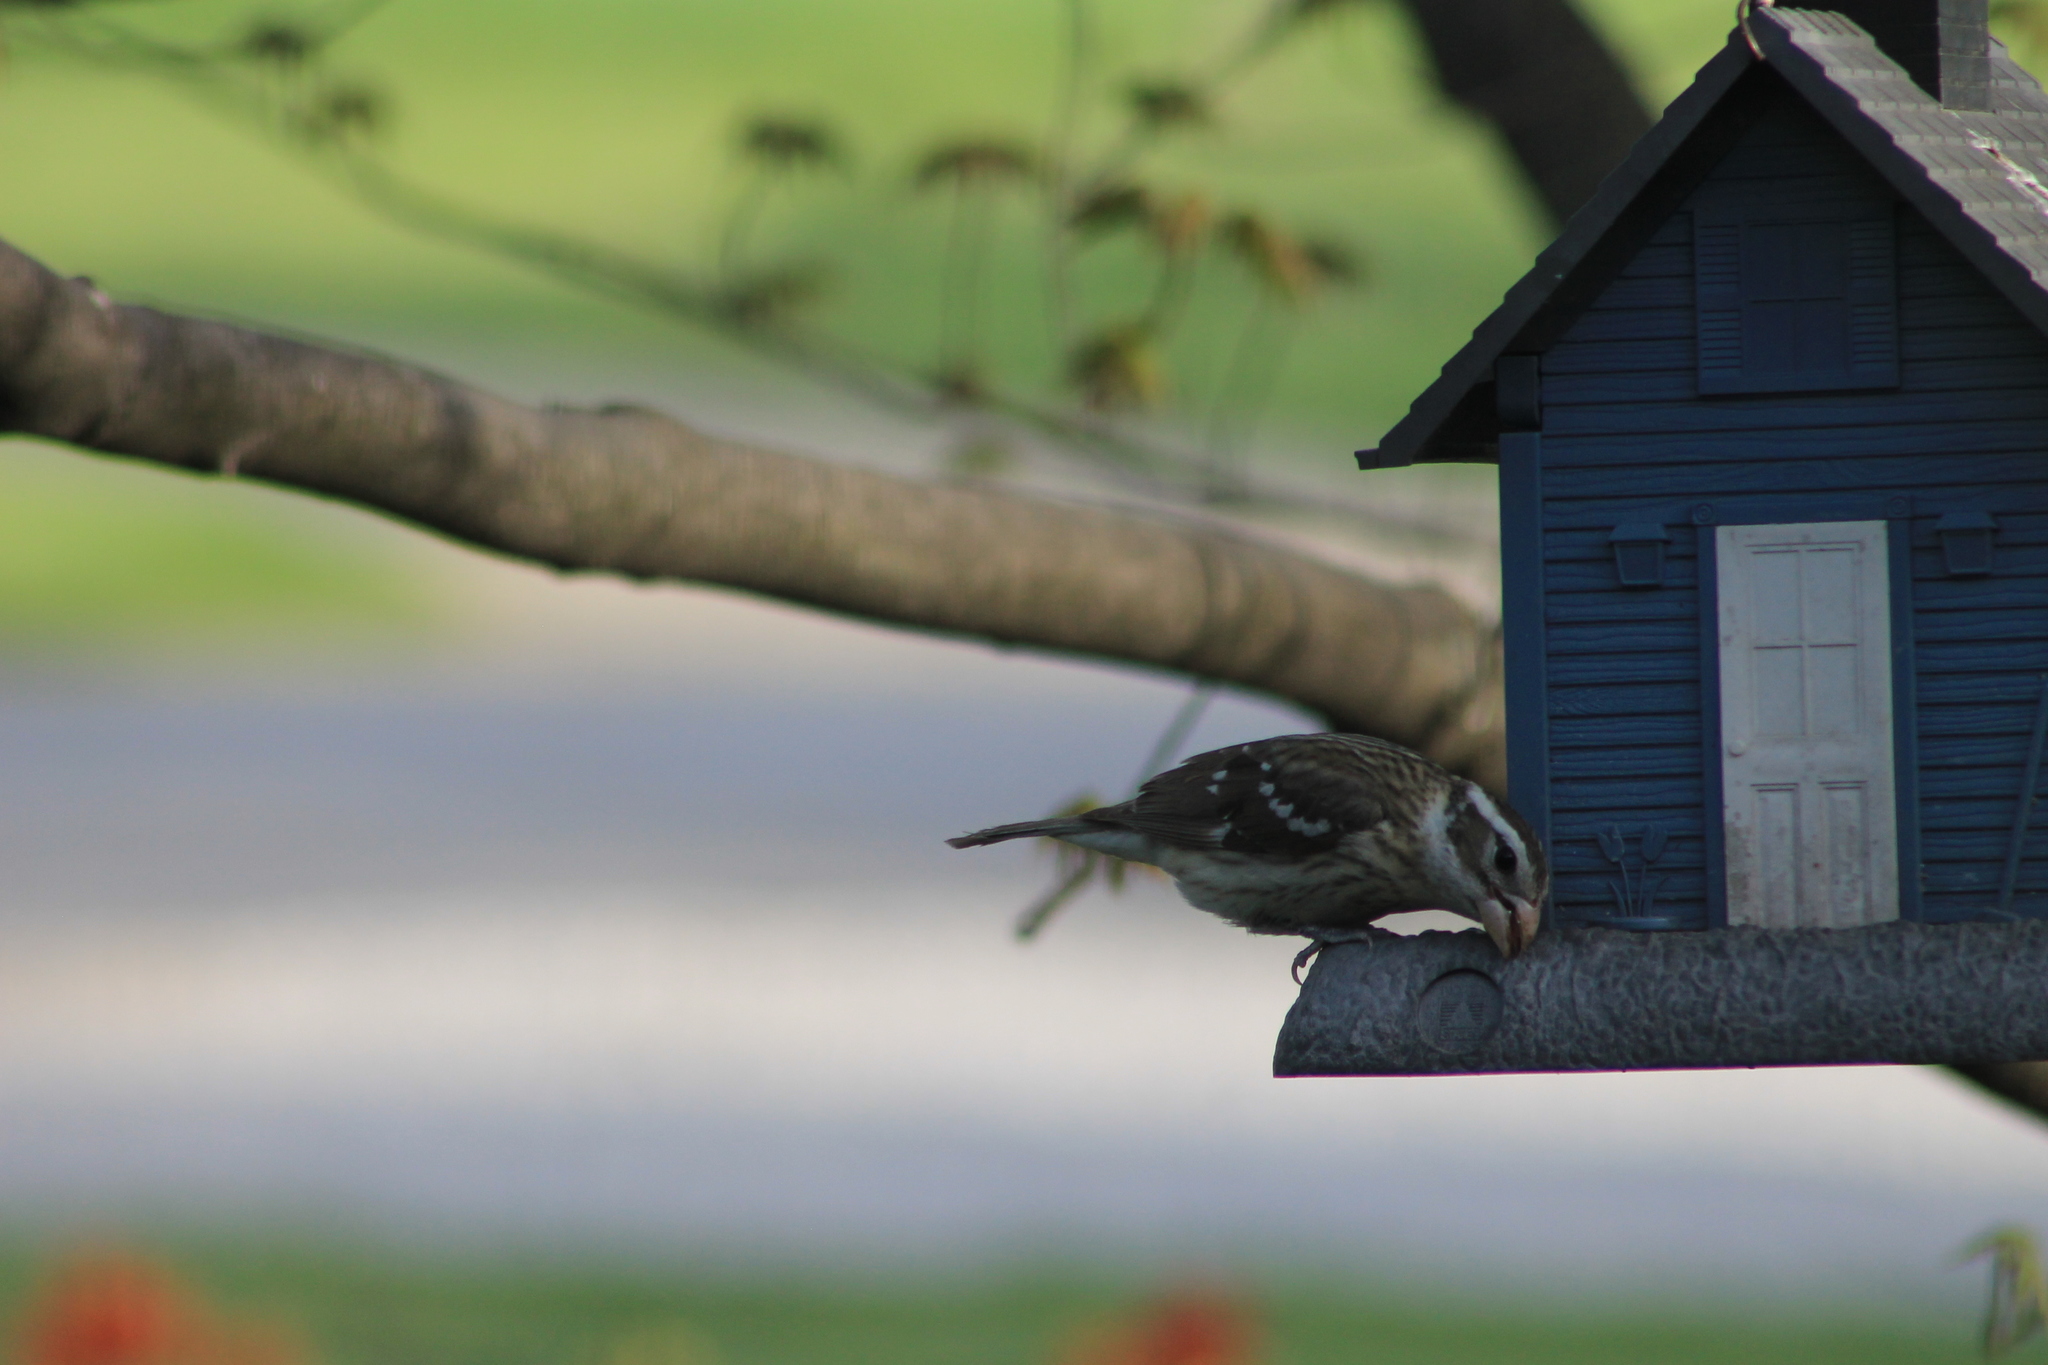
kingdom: Animalia
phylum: Chordata
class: Aves
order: Passeriformes
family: Cardinalidae
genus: Pheucticus
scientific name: Pheucticus ludovicianus
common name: Rose-breasted grosbeak
